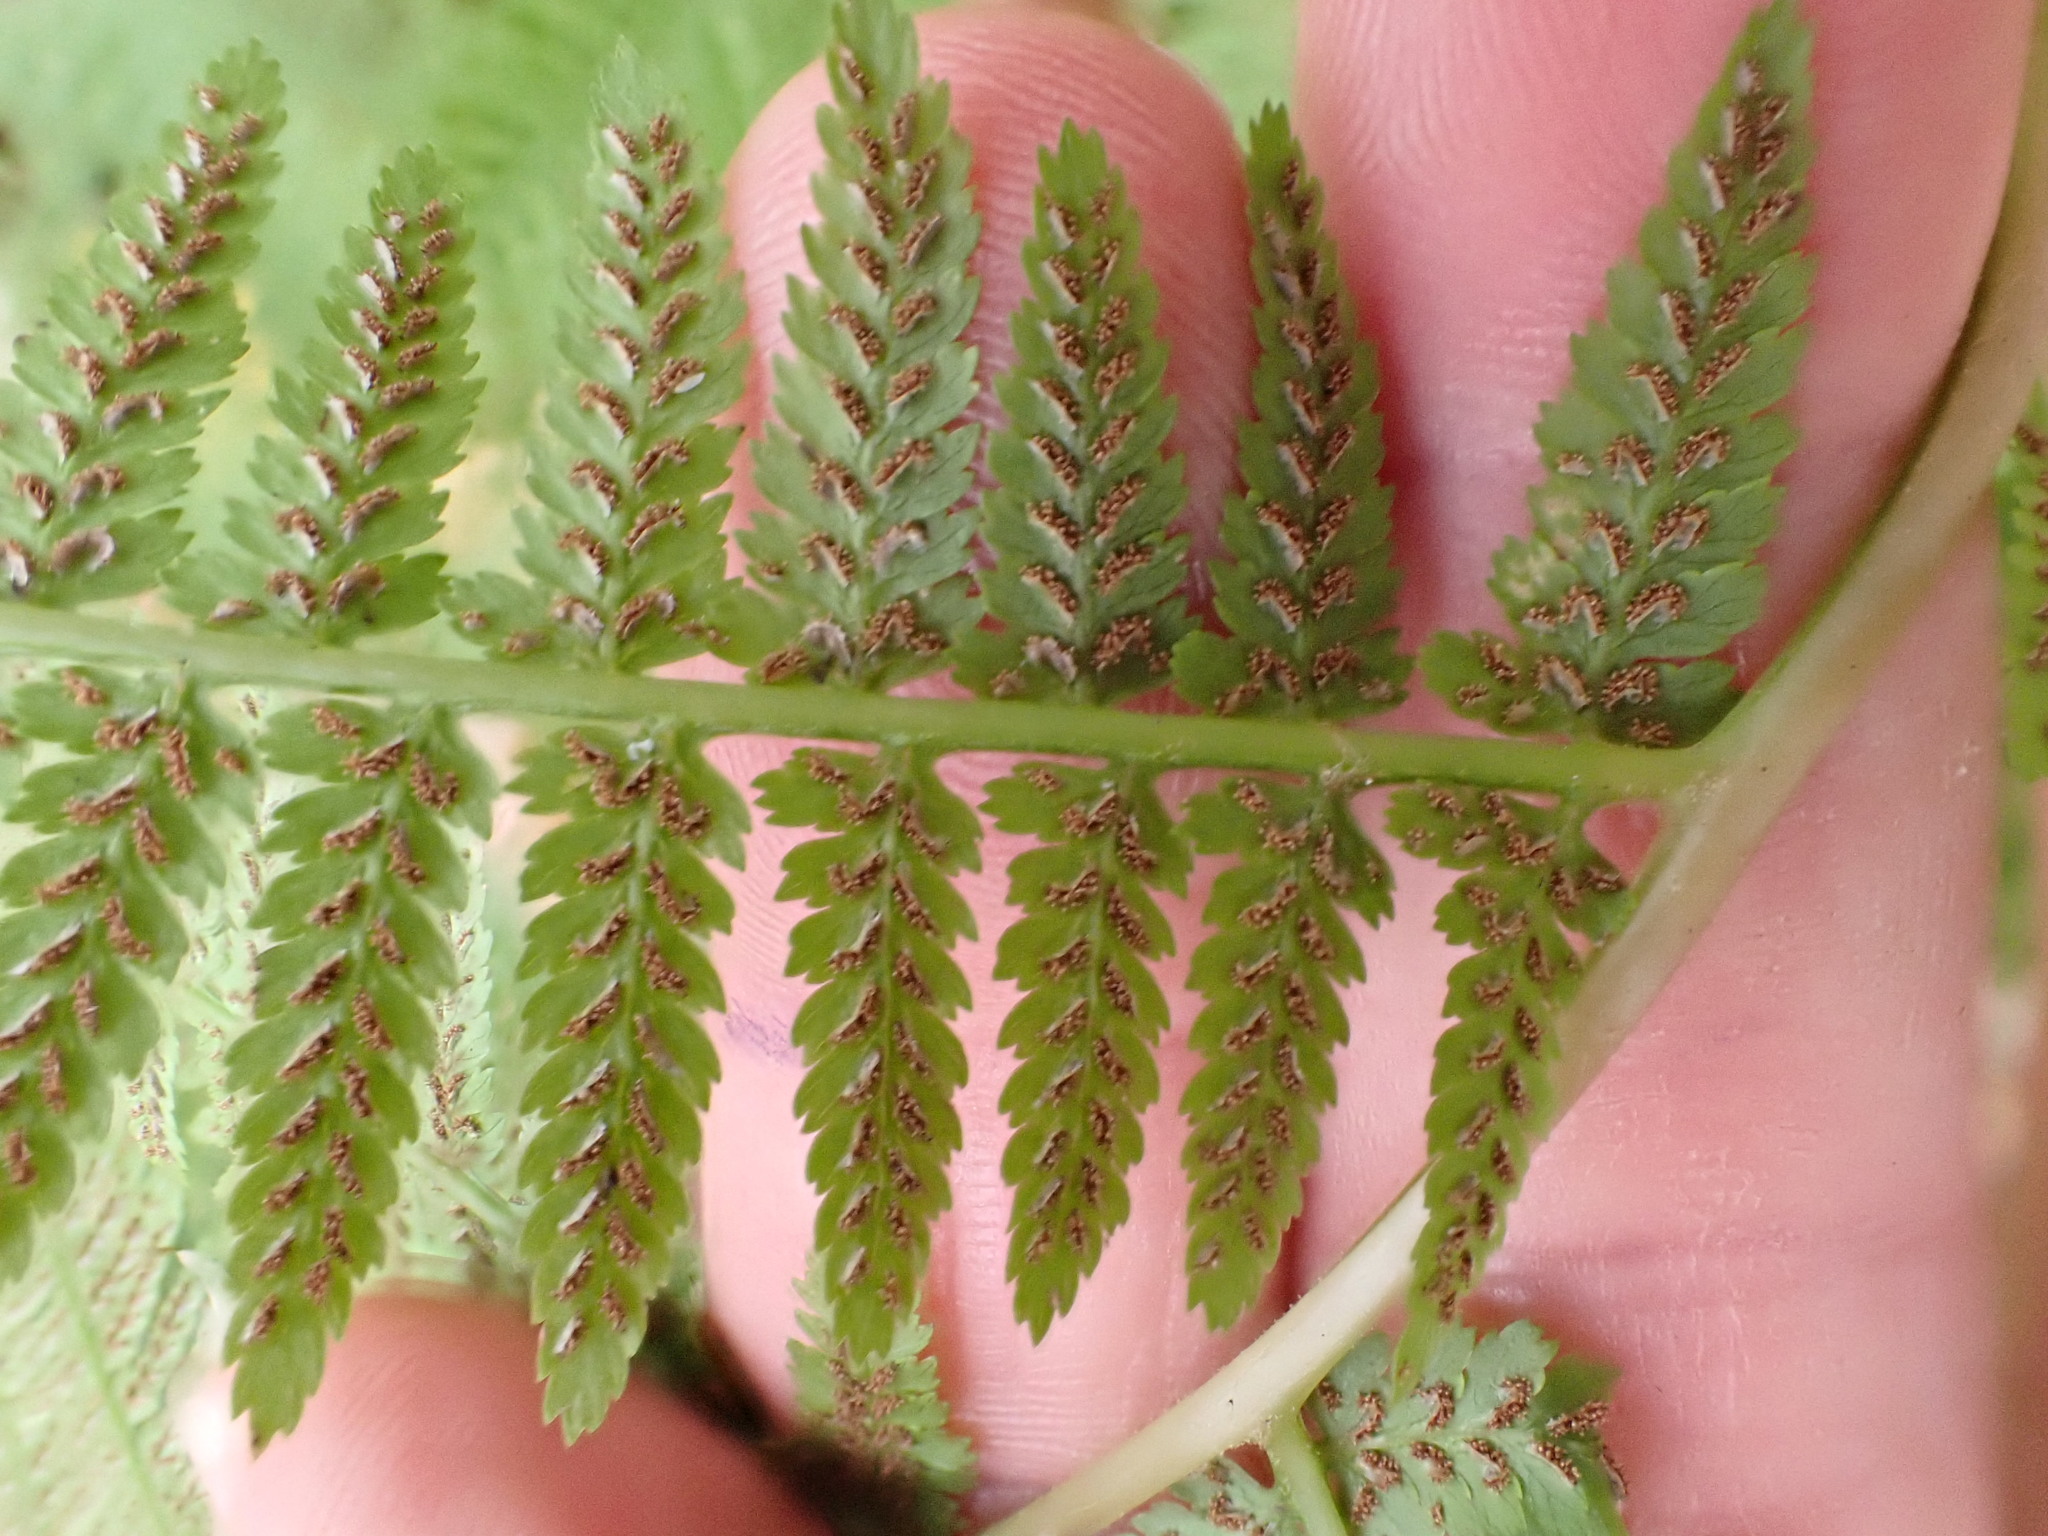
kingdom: Plantae
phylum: Tracheophyta
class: Polypodiopsida
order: Polypodiales
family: Athyriaceae
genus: Athyrium
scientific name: Athyrium angustum
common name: Northern lady fern
